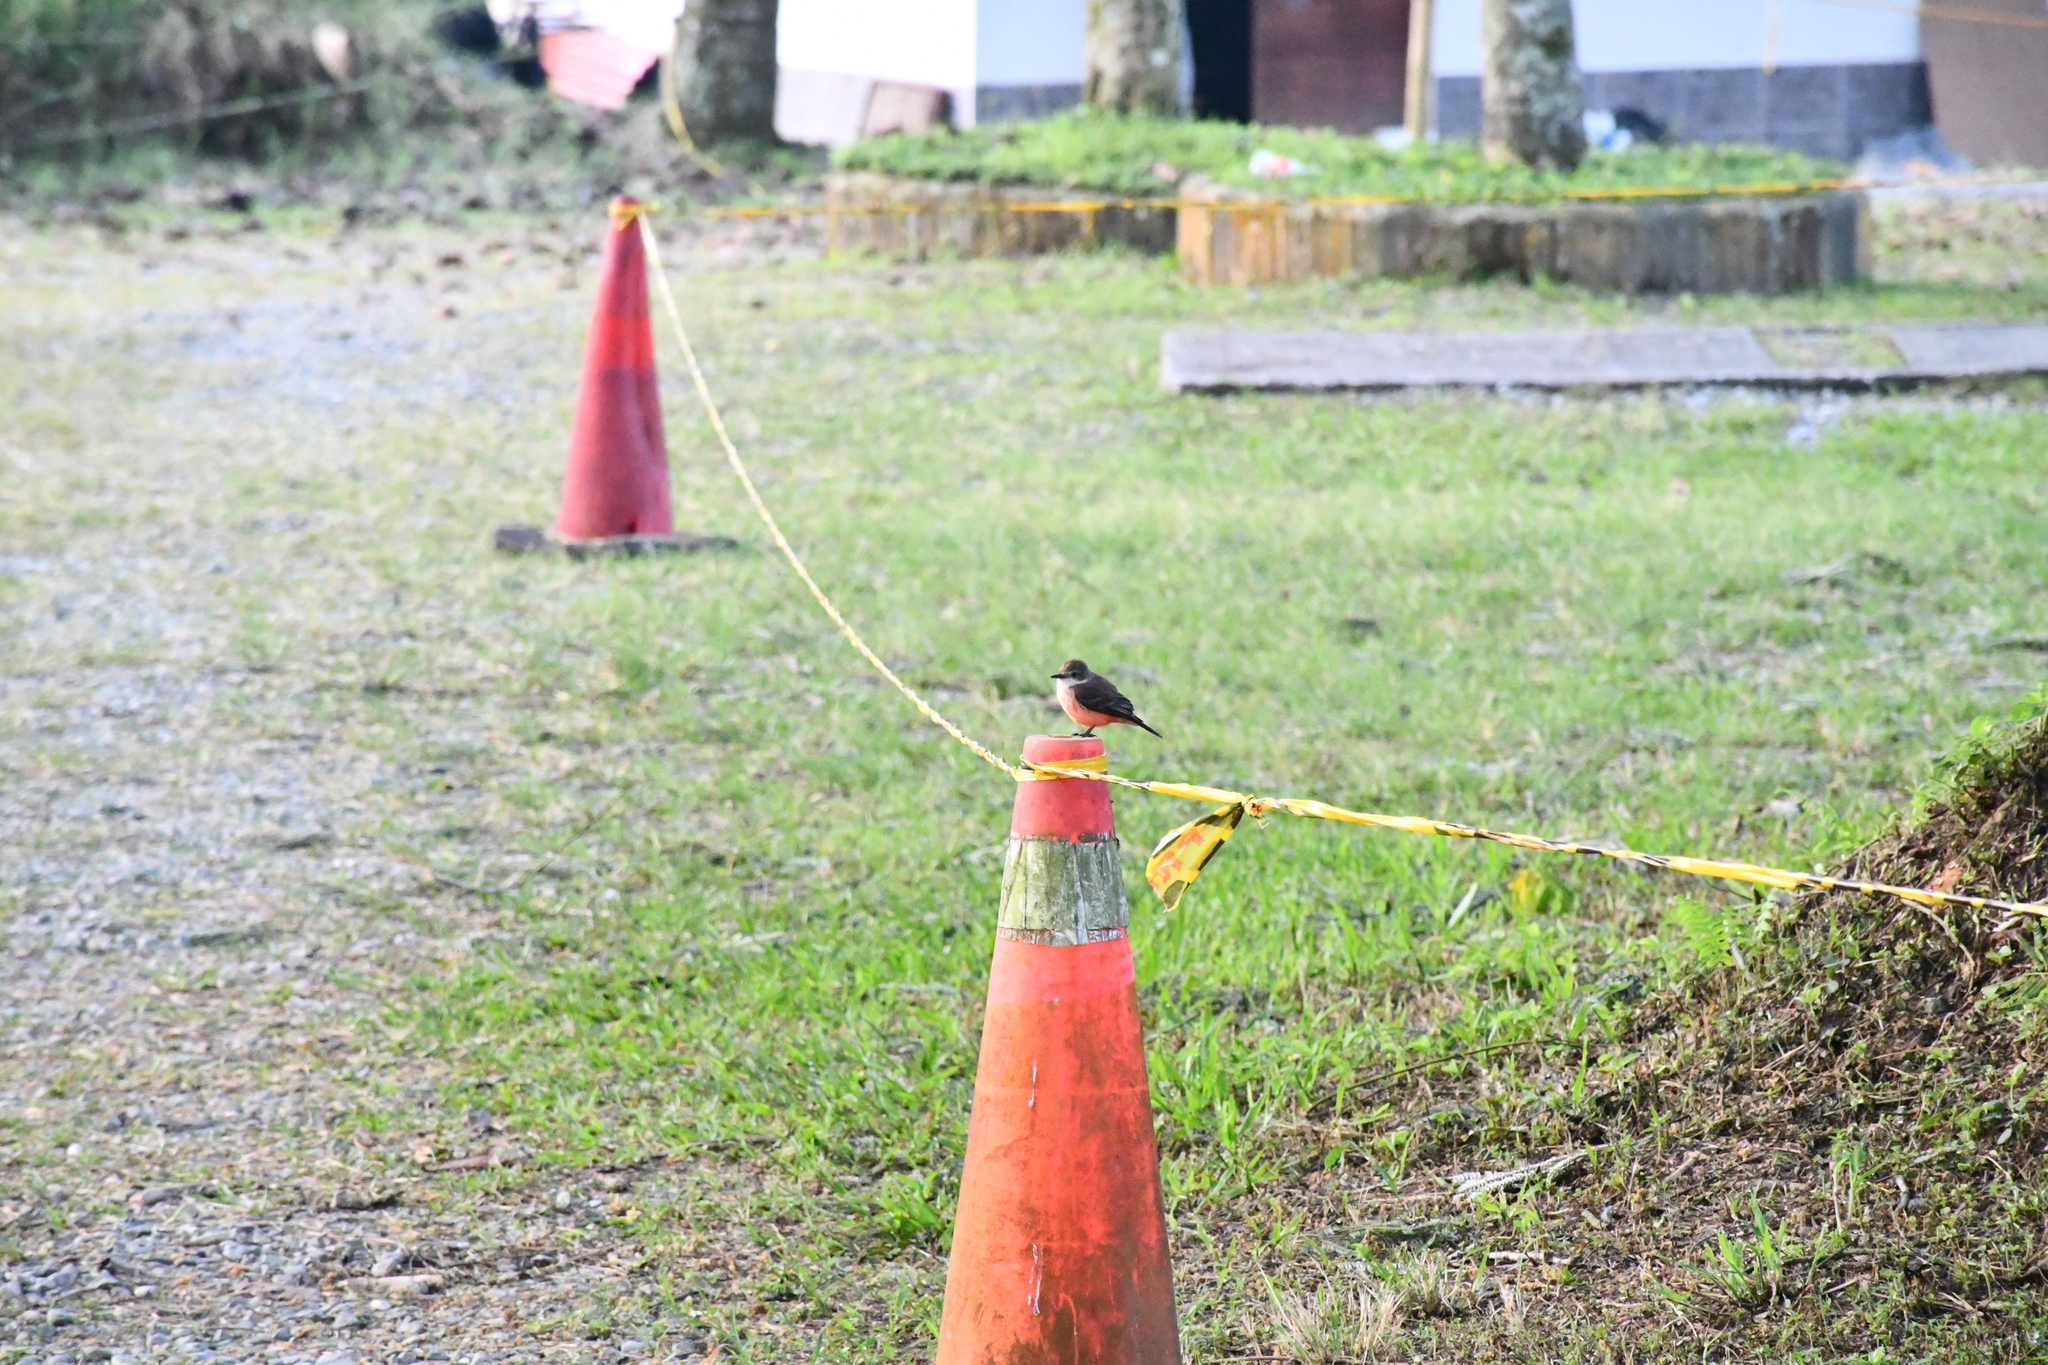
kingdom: Animalia
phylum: Chordata
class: Aves
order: Passeriformes
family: Tyrannidae
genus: Pyrocephalus
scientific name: Pyrocephalus rubinus
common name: Vermilion flycatcher
